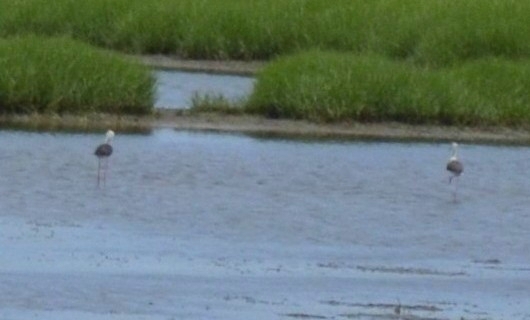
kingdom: Animalia
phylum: Chordata
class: Aves
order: Charadriiformes
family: Recurvirostridae
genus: Himantopus
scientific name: Himantopus himantopus
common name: Black-winged stilt
